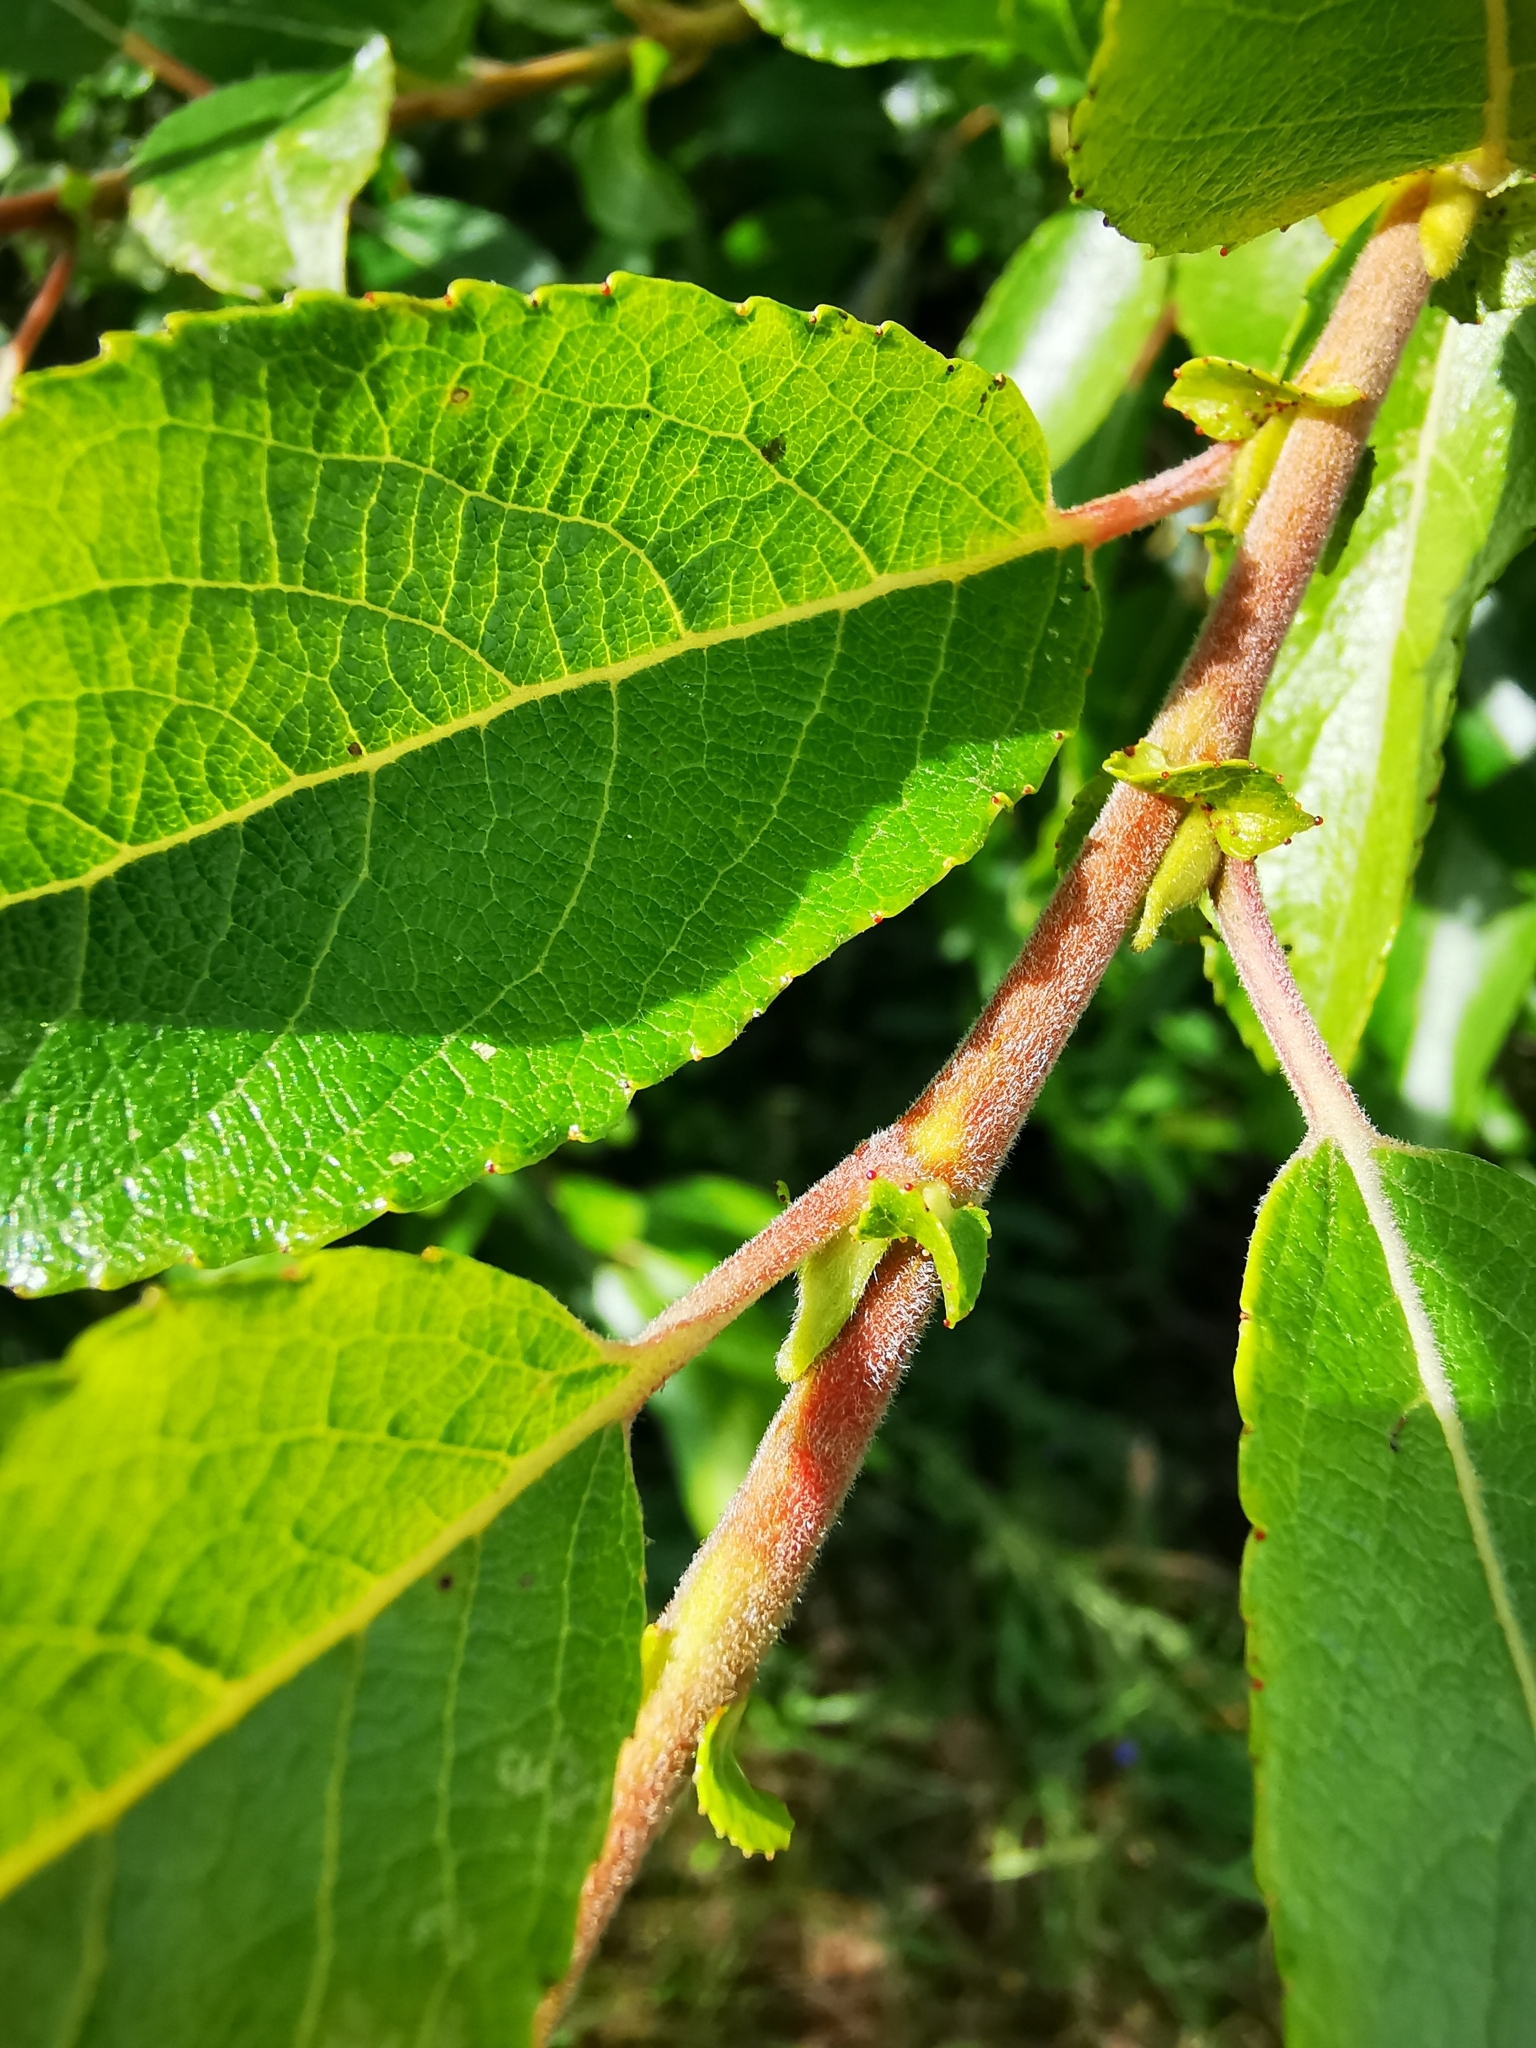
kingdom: Plantae
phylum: Tracheophyta
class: Magnoliopsida
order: Malpighiales
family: Salicaceae
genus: Salix
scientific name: Salix triandra
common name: Almond willow
